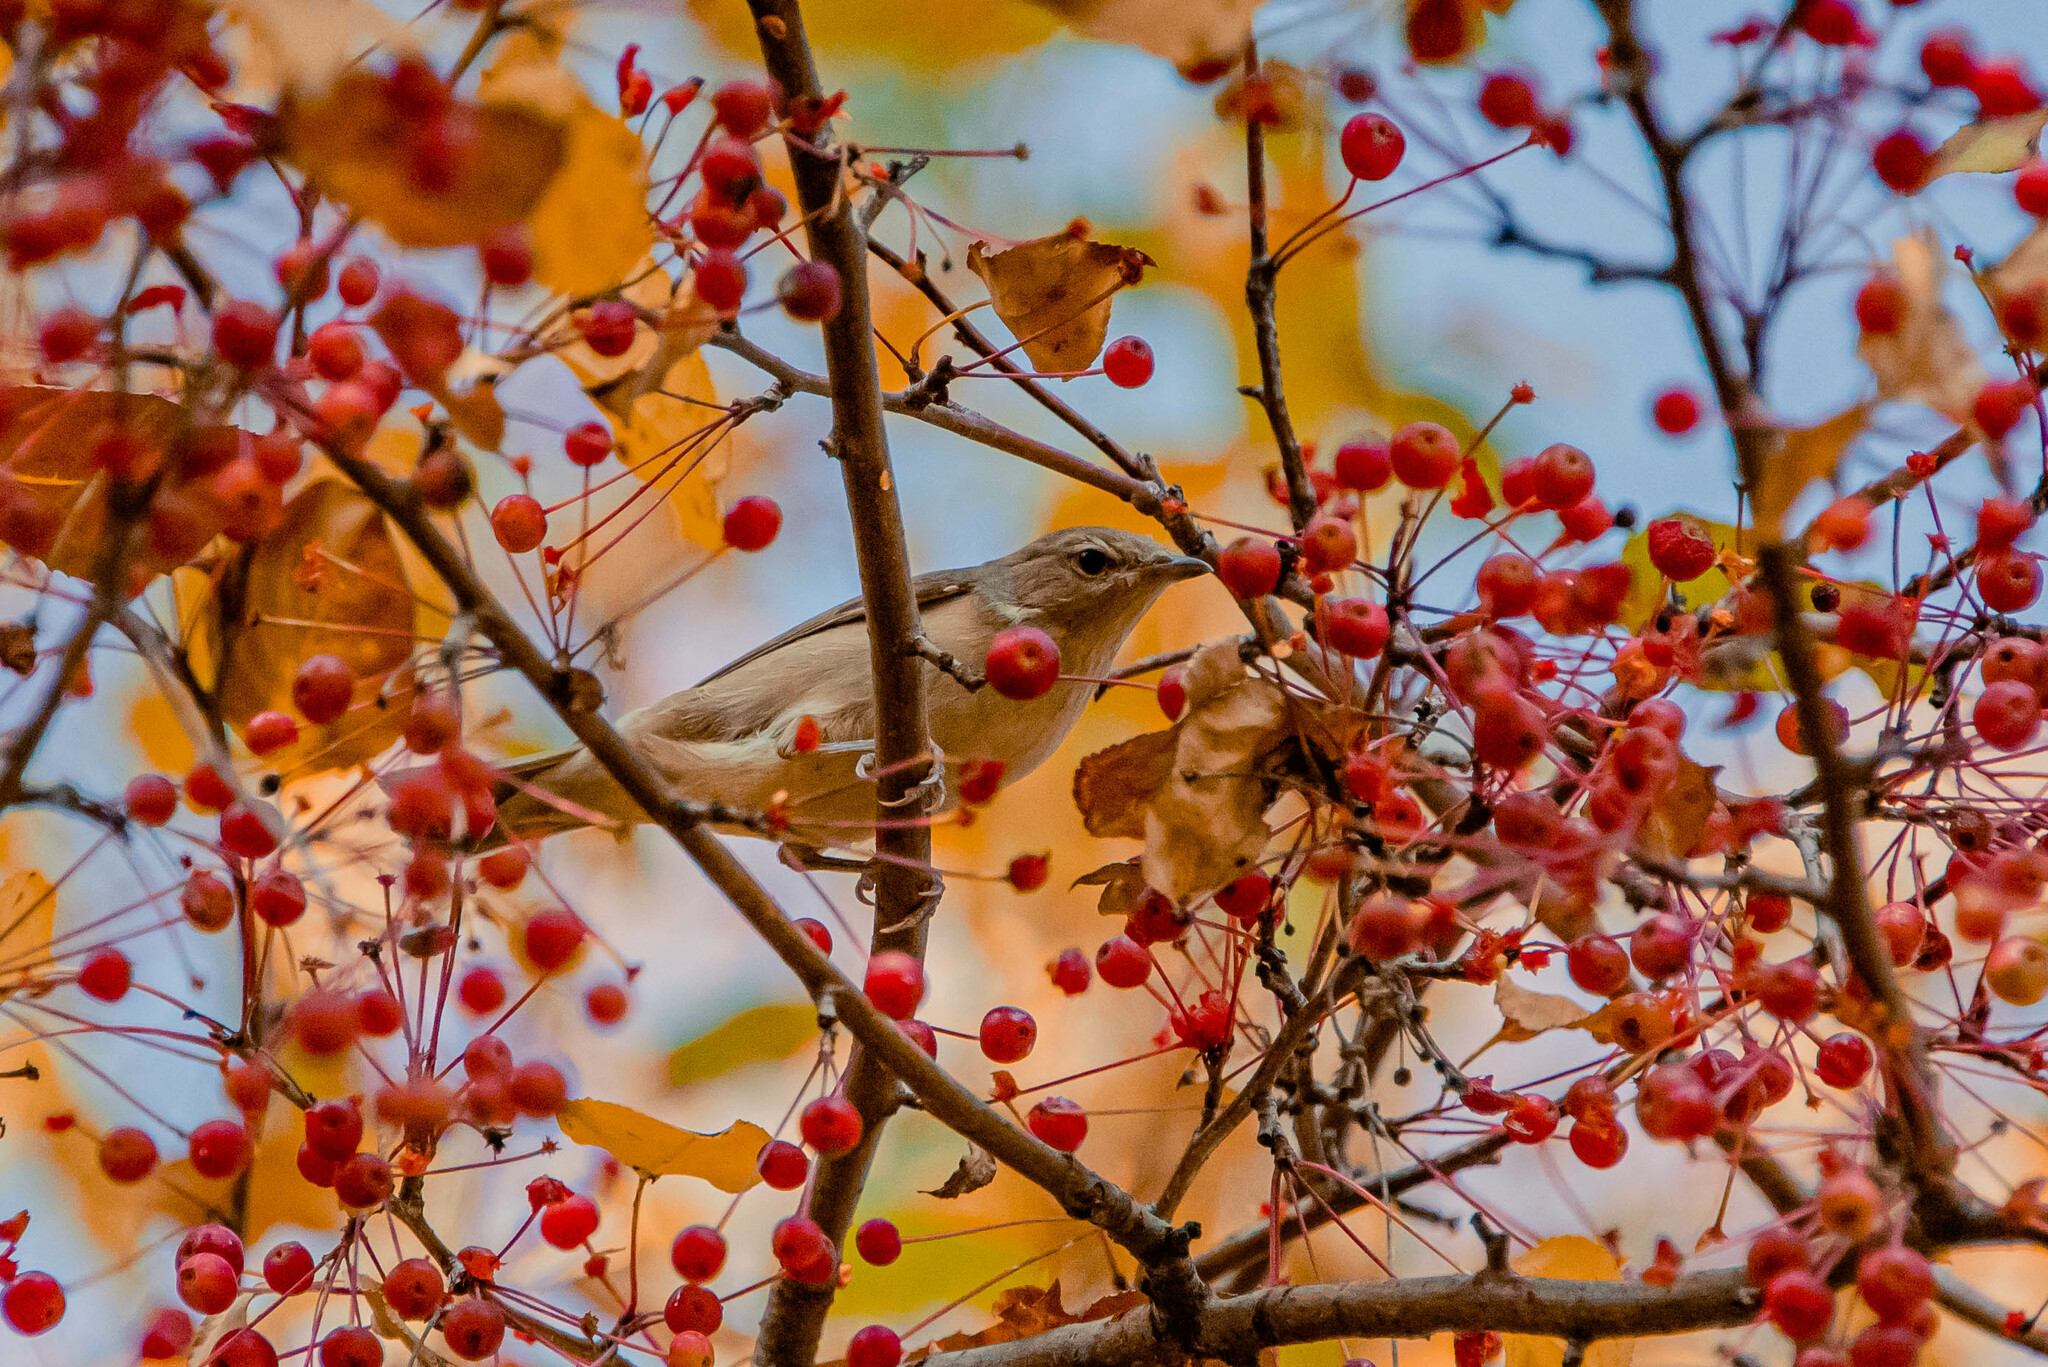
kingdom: Animalia
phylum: Chordata
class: Aves
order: Passeriformes
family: Sylviidae
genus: Sylvia
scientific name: Sylvia borin
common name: Garden warbler
